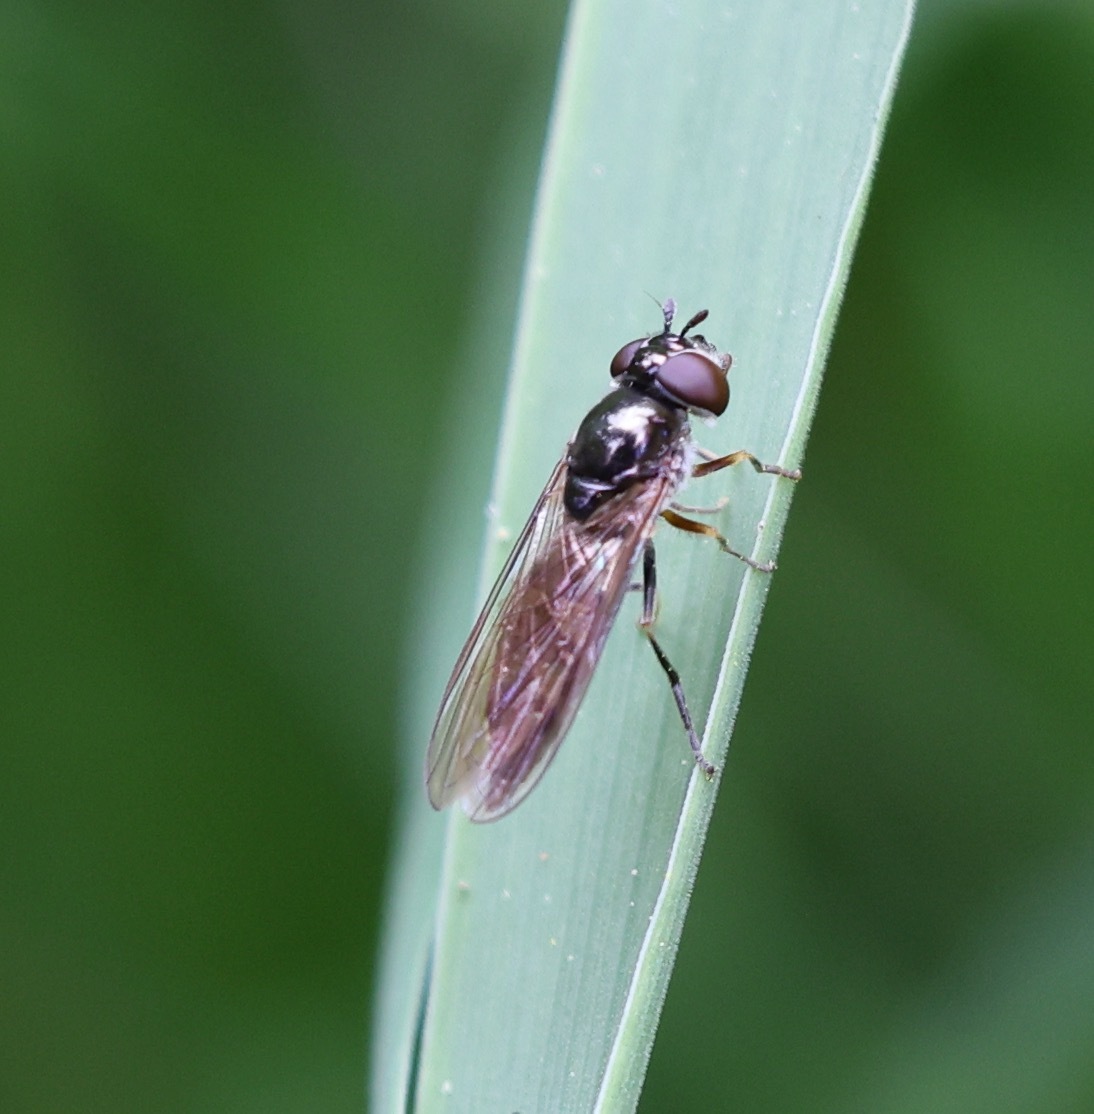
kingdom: Animalia
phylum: Arthropoda
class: Insecta
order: Diptera
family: Syrphidae
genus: Platycheirus
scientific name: Platycheirus albimanus
